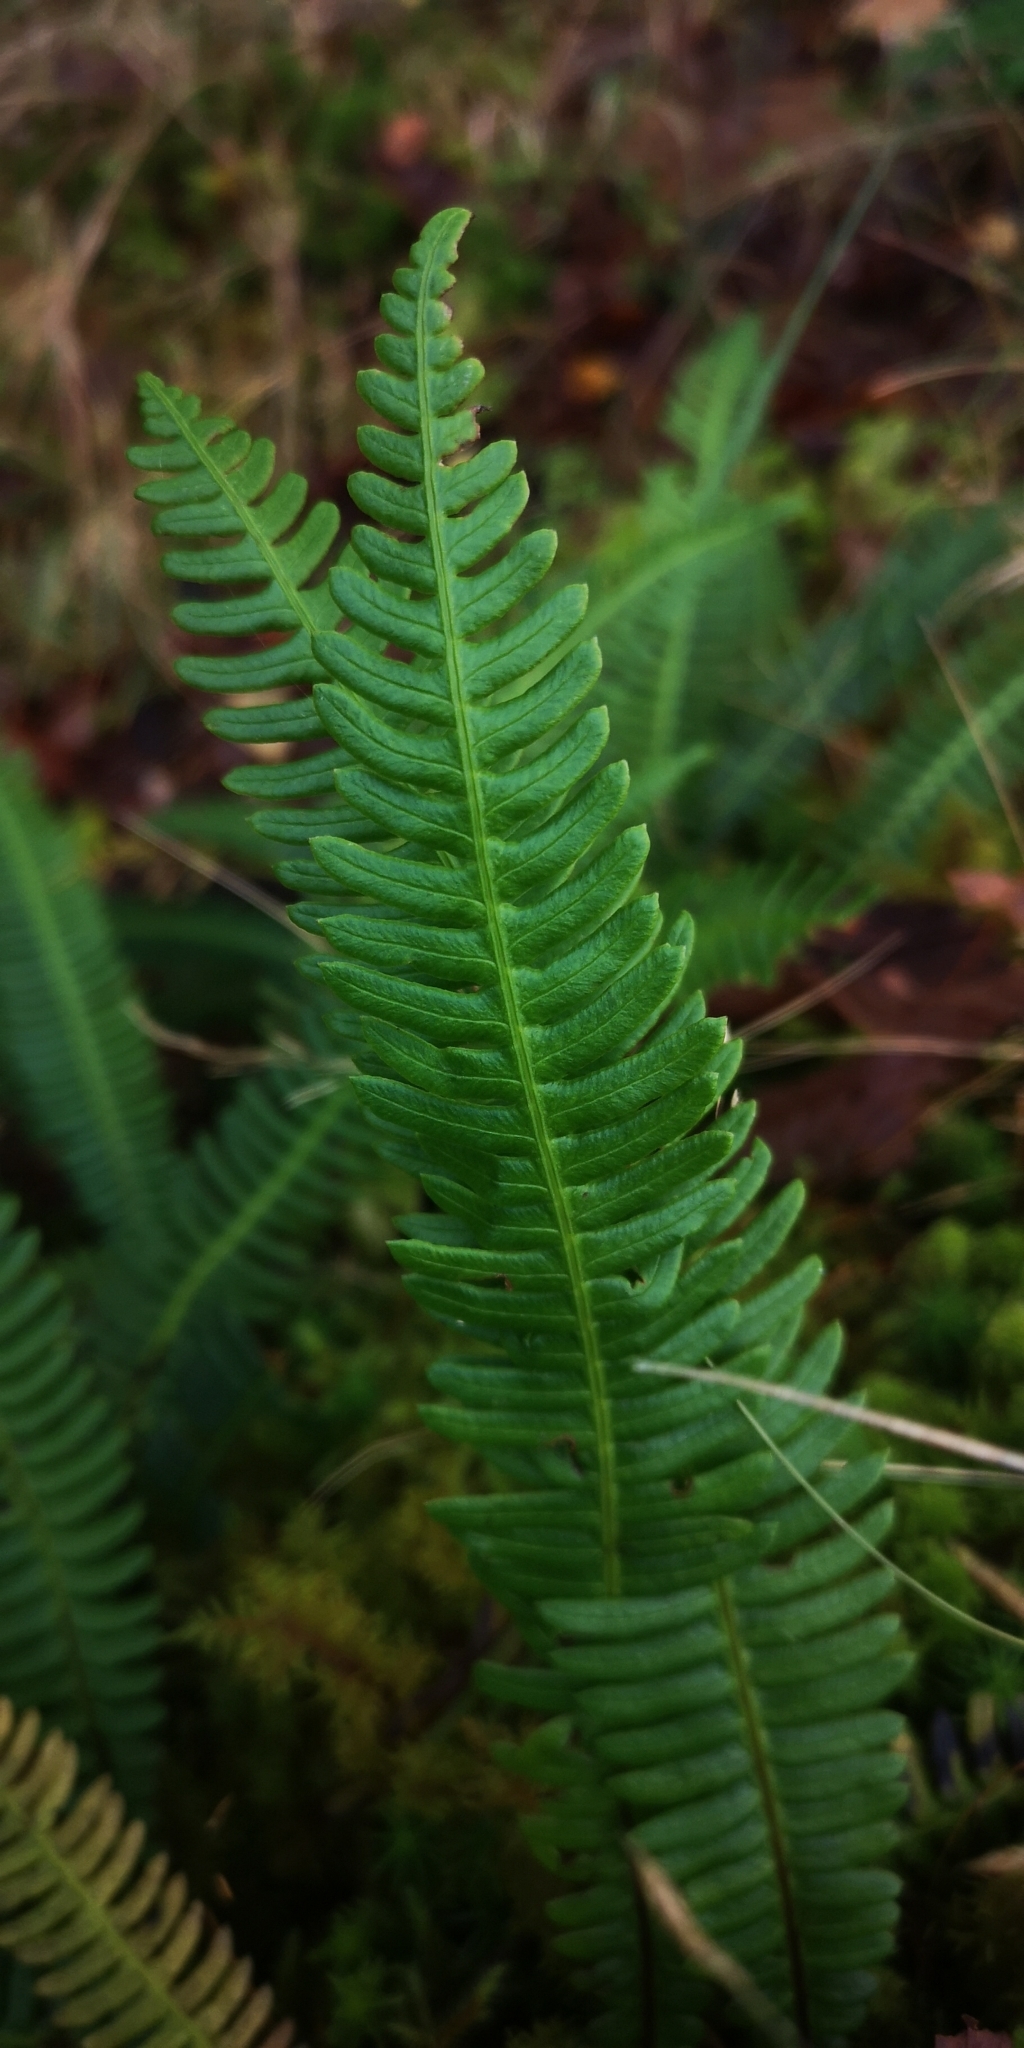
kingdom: Plantae
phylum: Tracheophyta
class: Polypodiopsida
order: Polypodiales
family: Blechnaceae
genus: Struthiopteris
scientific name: Struthiopteris spicant
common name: Deer fern
